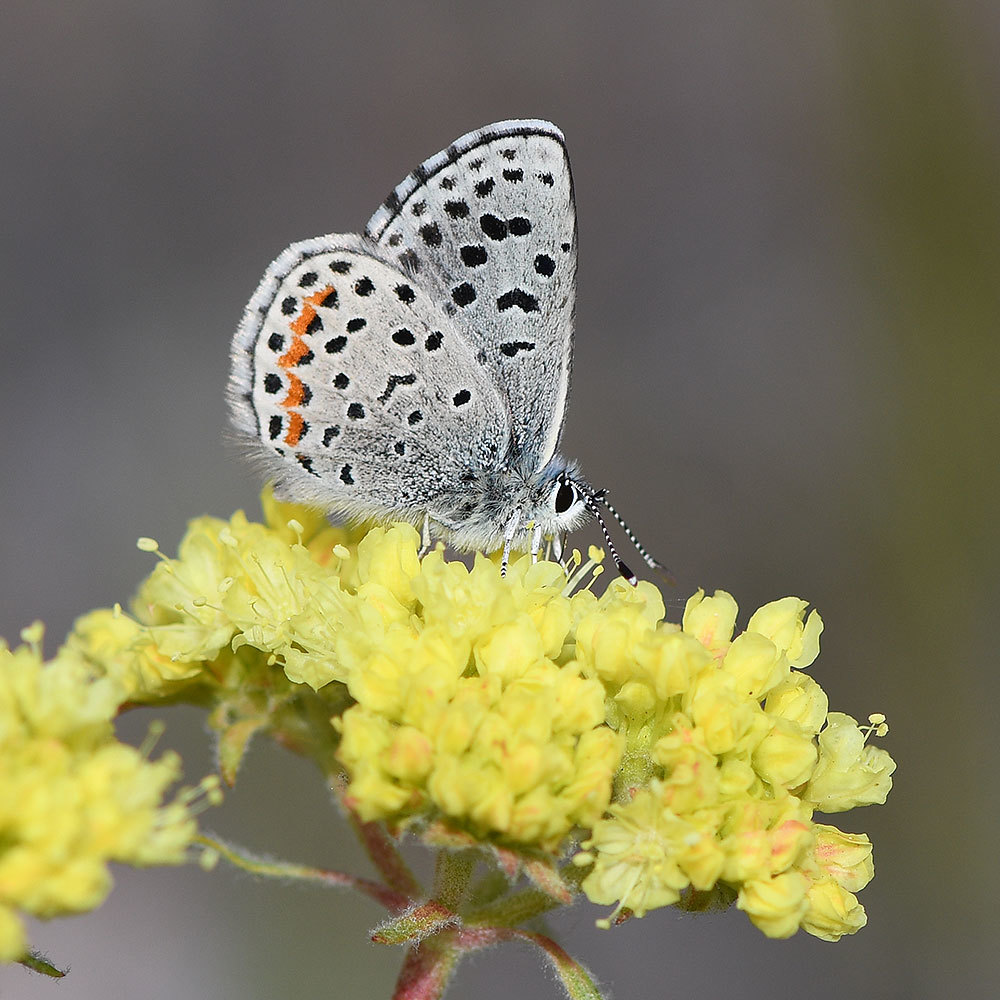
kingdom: Animalia
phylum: Arthropoda
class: Insecta
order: Lepidoptera
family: Lycaenidae
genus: Euphilotes
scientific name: Euphilotes enoptes
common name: Dotted blue
